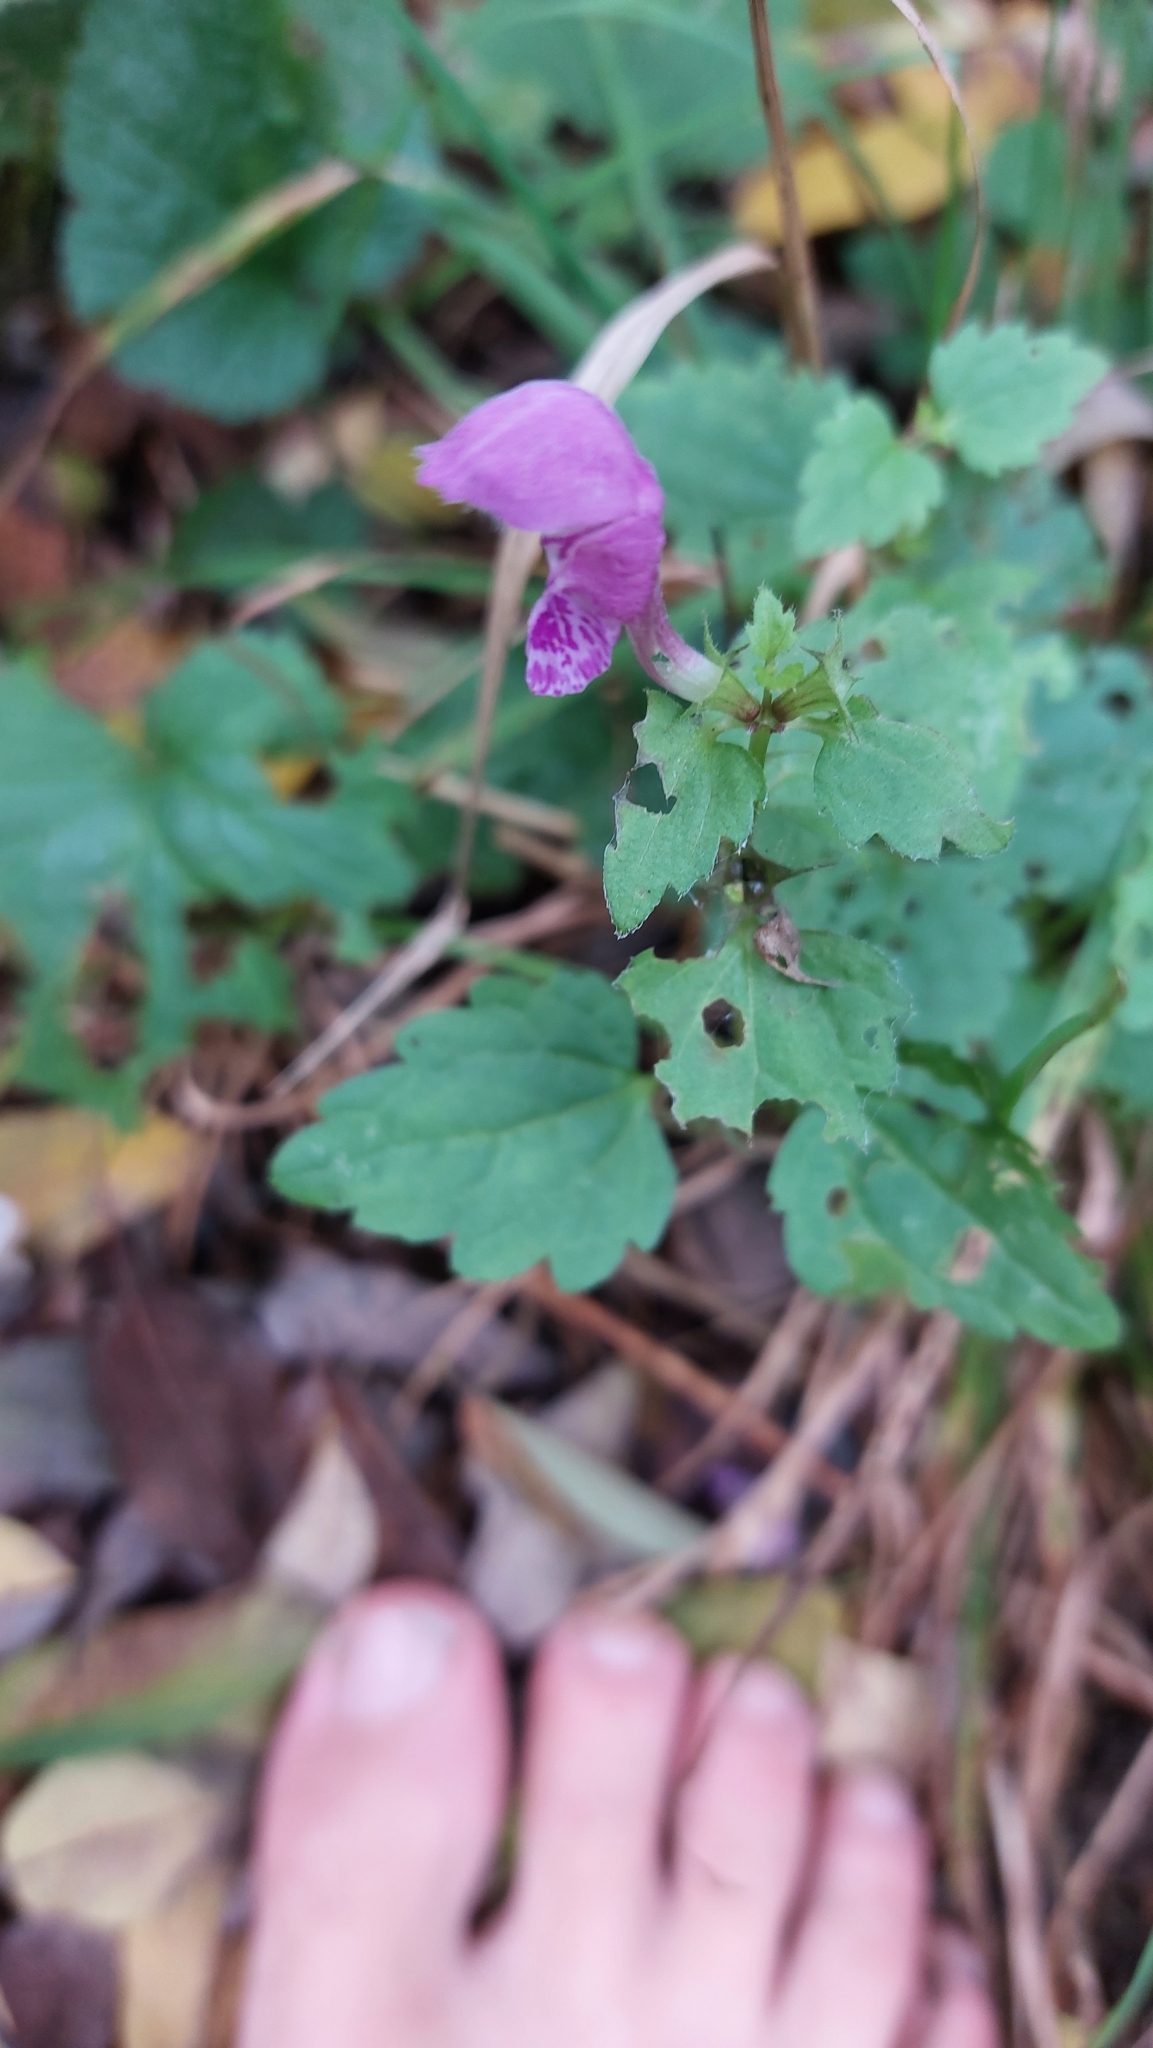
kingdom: Plantae
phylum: Tracheophyta
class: Magnoliopsida
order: Lamiales
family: Lamiaceae
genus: Lamium
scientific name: Lamium maculatum
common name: Spotted dead-nettle
